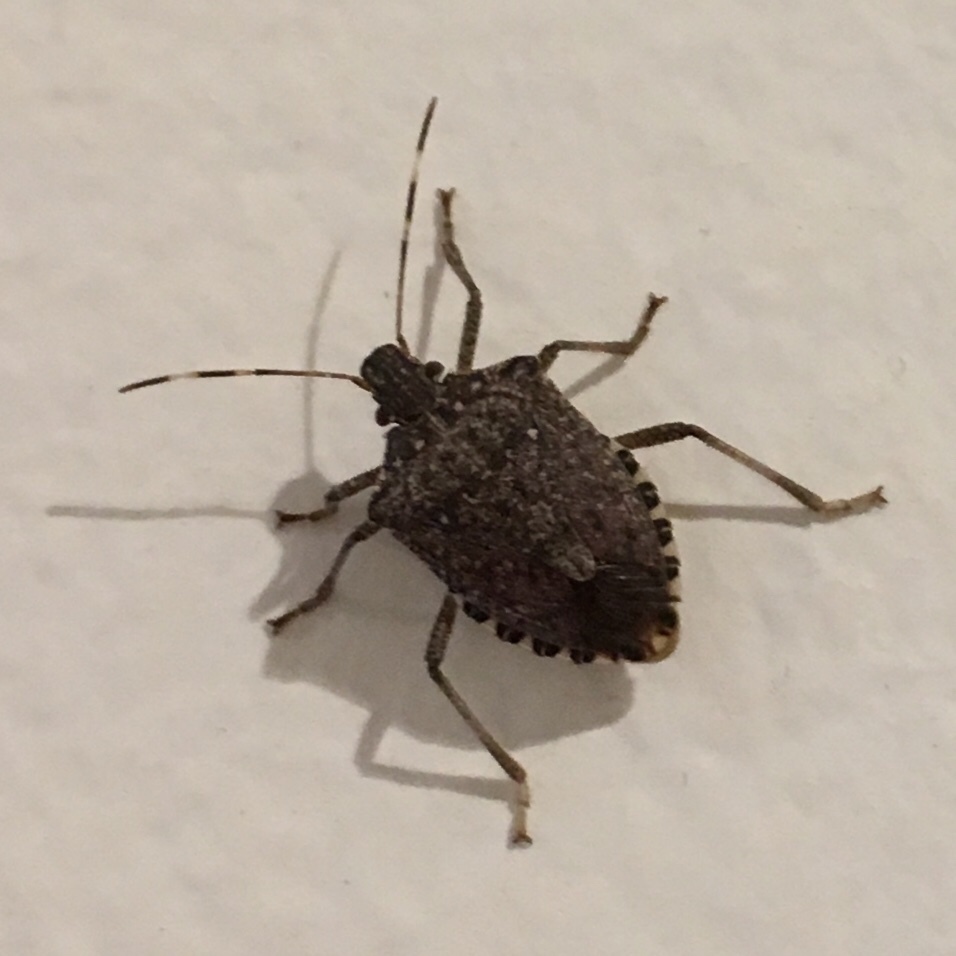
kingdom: Animalia
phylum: Arthropoda
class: Insecta
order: Hemiptera
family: Pentatomidae
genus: Halyomorpha
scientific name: Halyomorpha halys
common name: Brown marmorated stink bug
